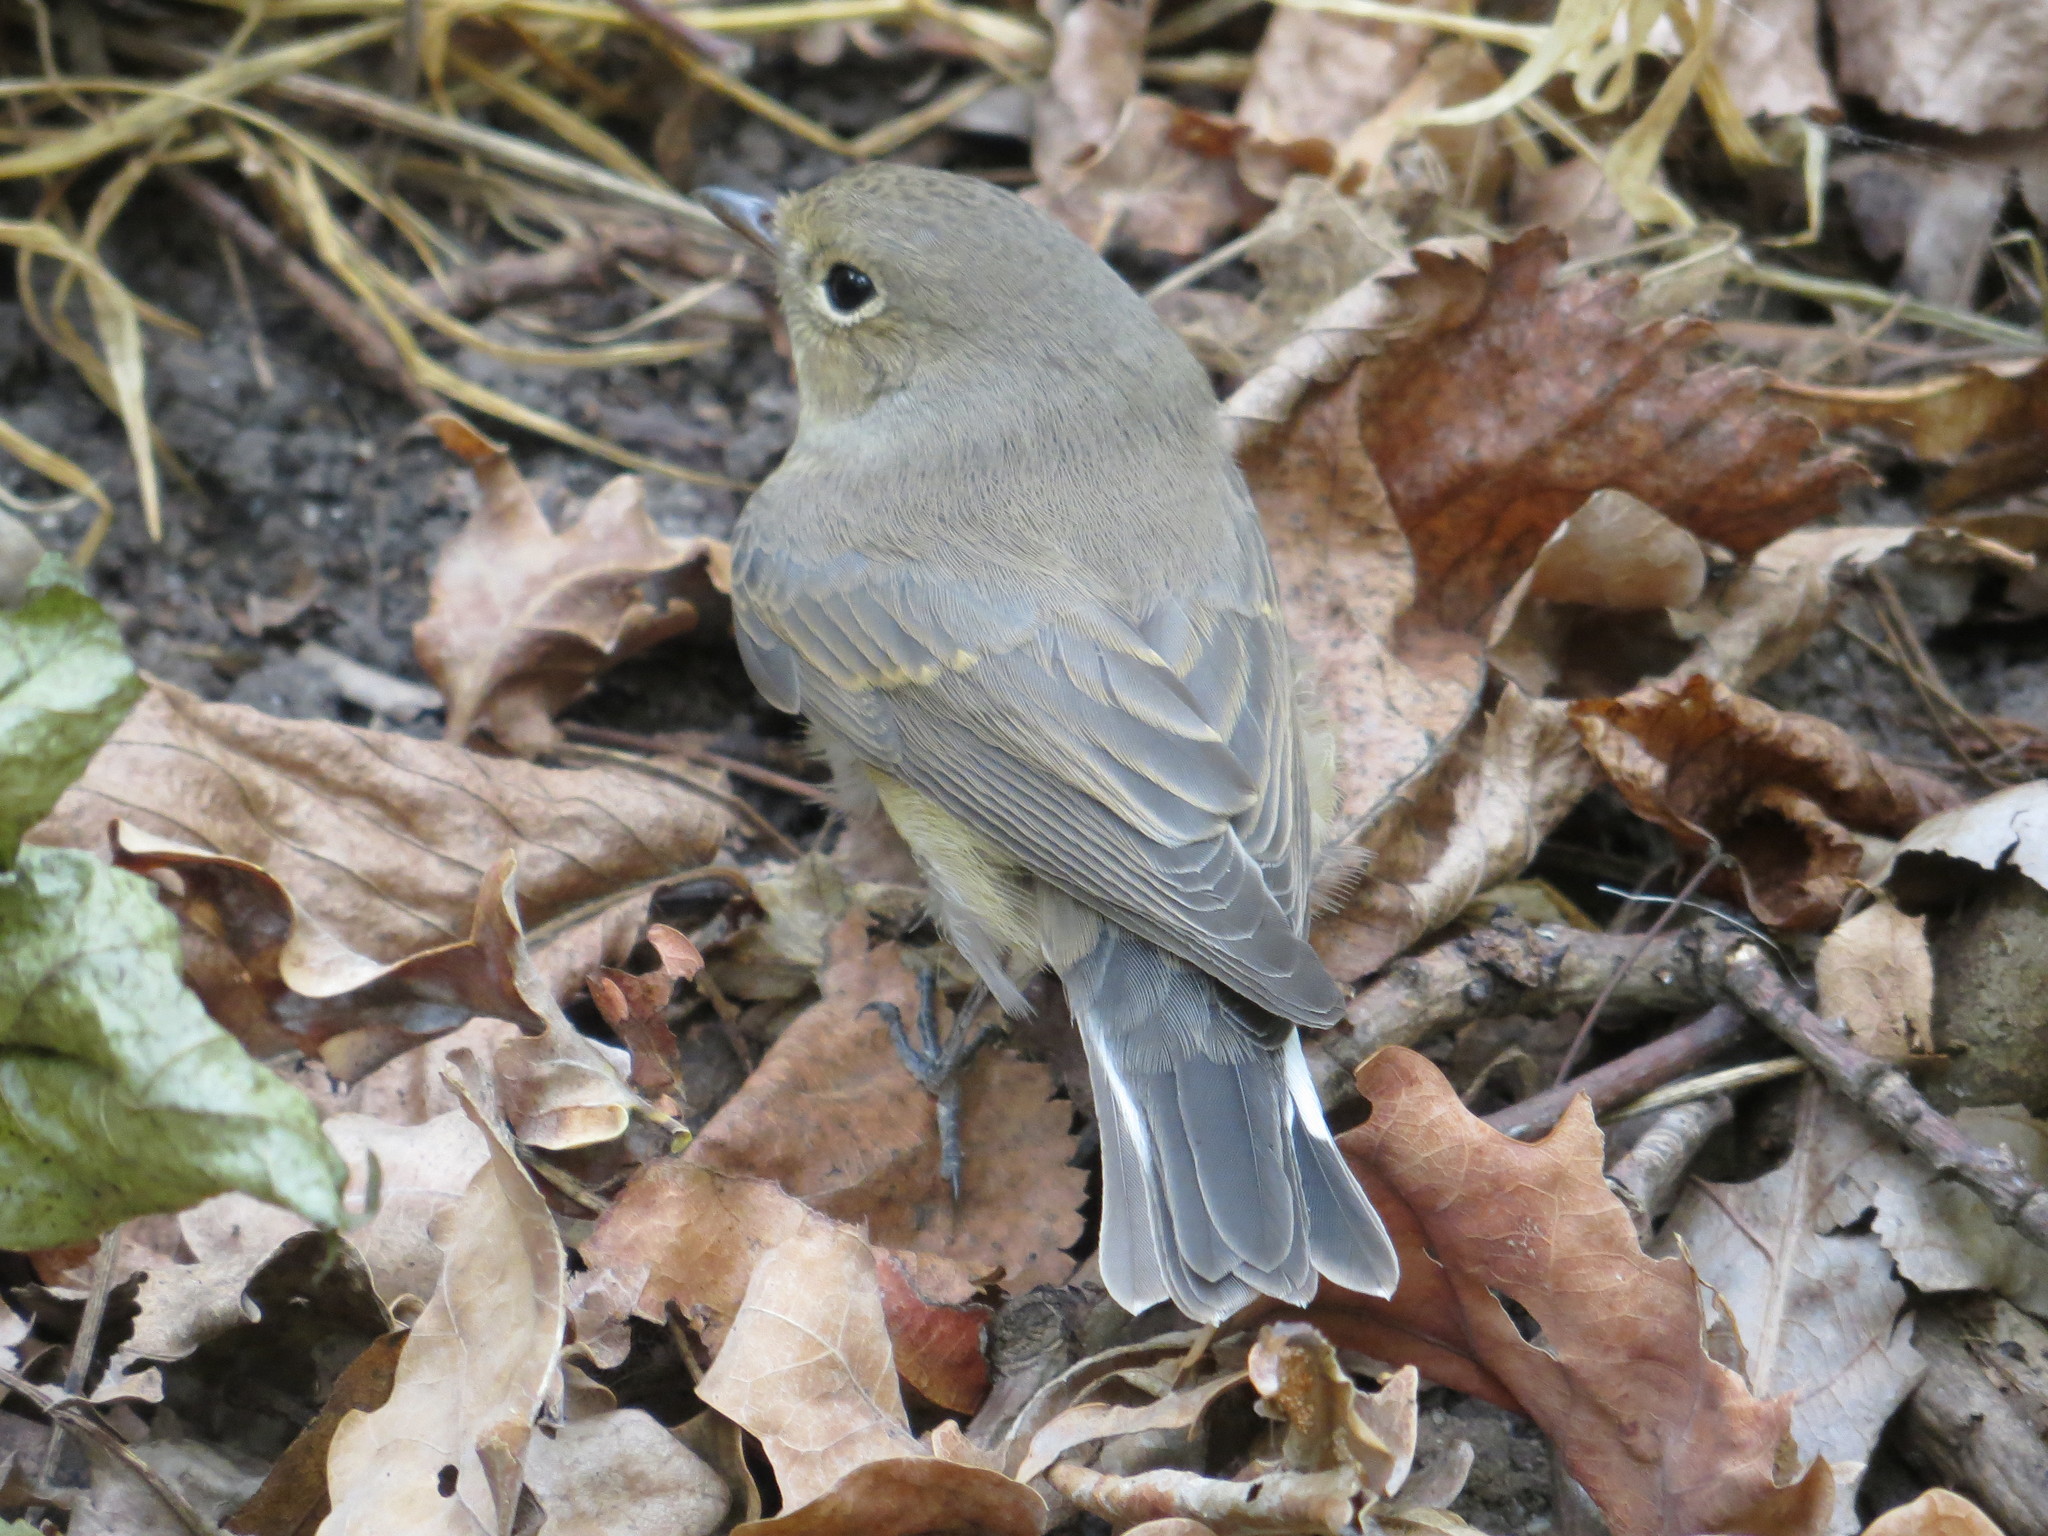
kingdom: Animalia
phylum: Chordata
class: Aves
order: Passeriformes
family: Muscicapidae
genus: Ficedula
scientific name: Ficedula parva
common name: Red-breasted flycatcher
